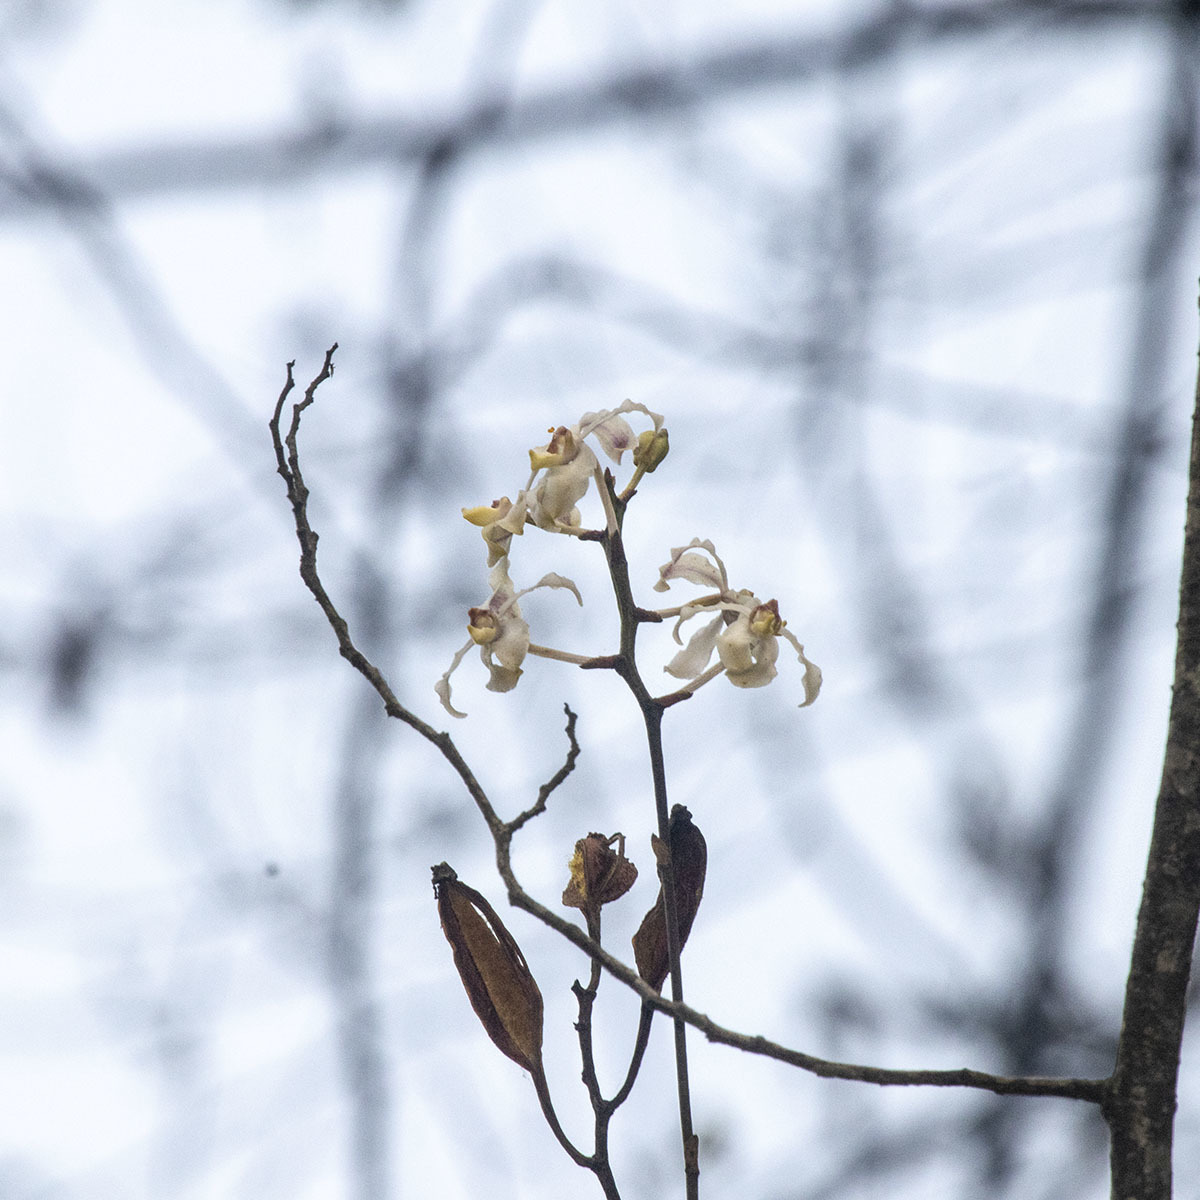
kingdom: Plantae
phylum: Tracheophyta
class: Liliopsida
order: Asparagales
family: Orchidaceae
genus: Cymbilabia
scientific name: Cymbilabia undulata
